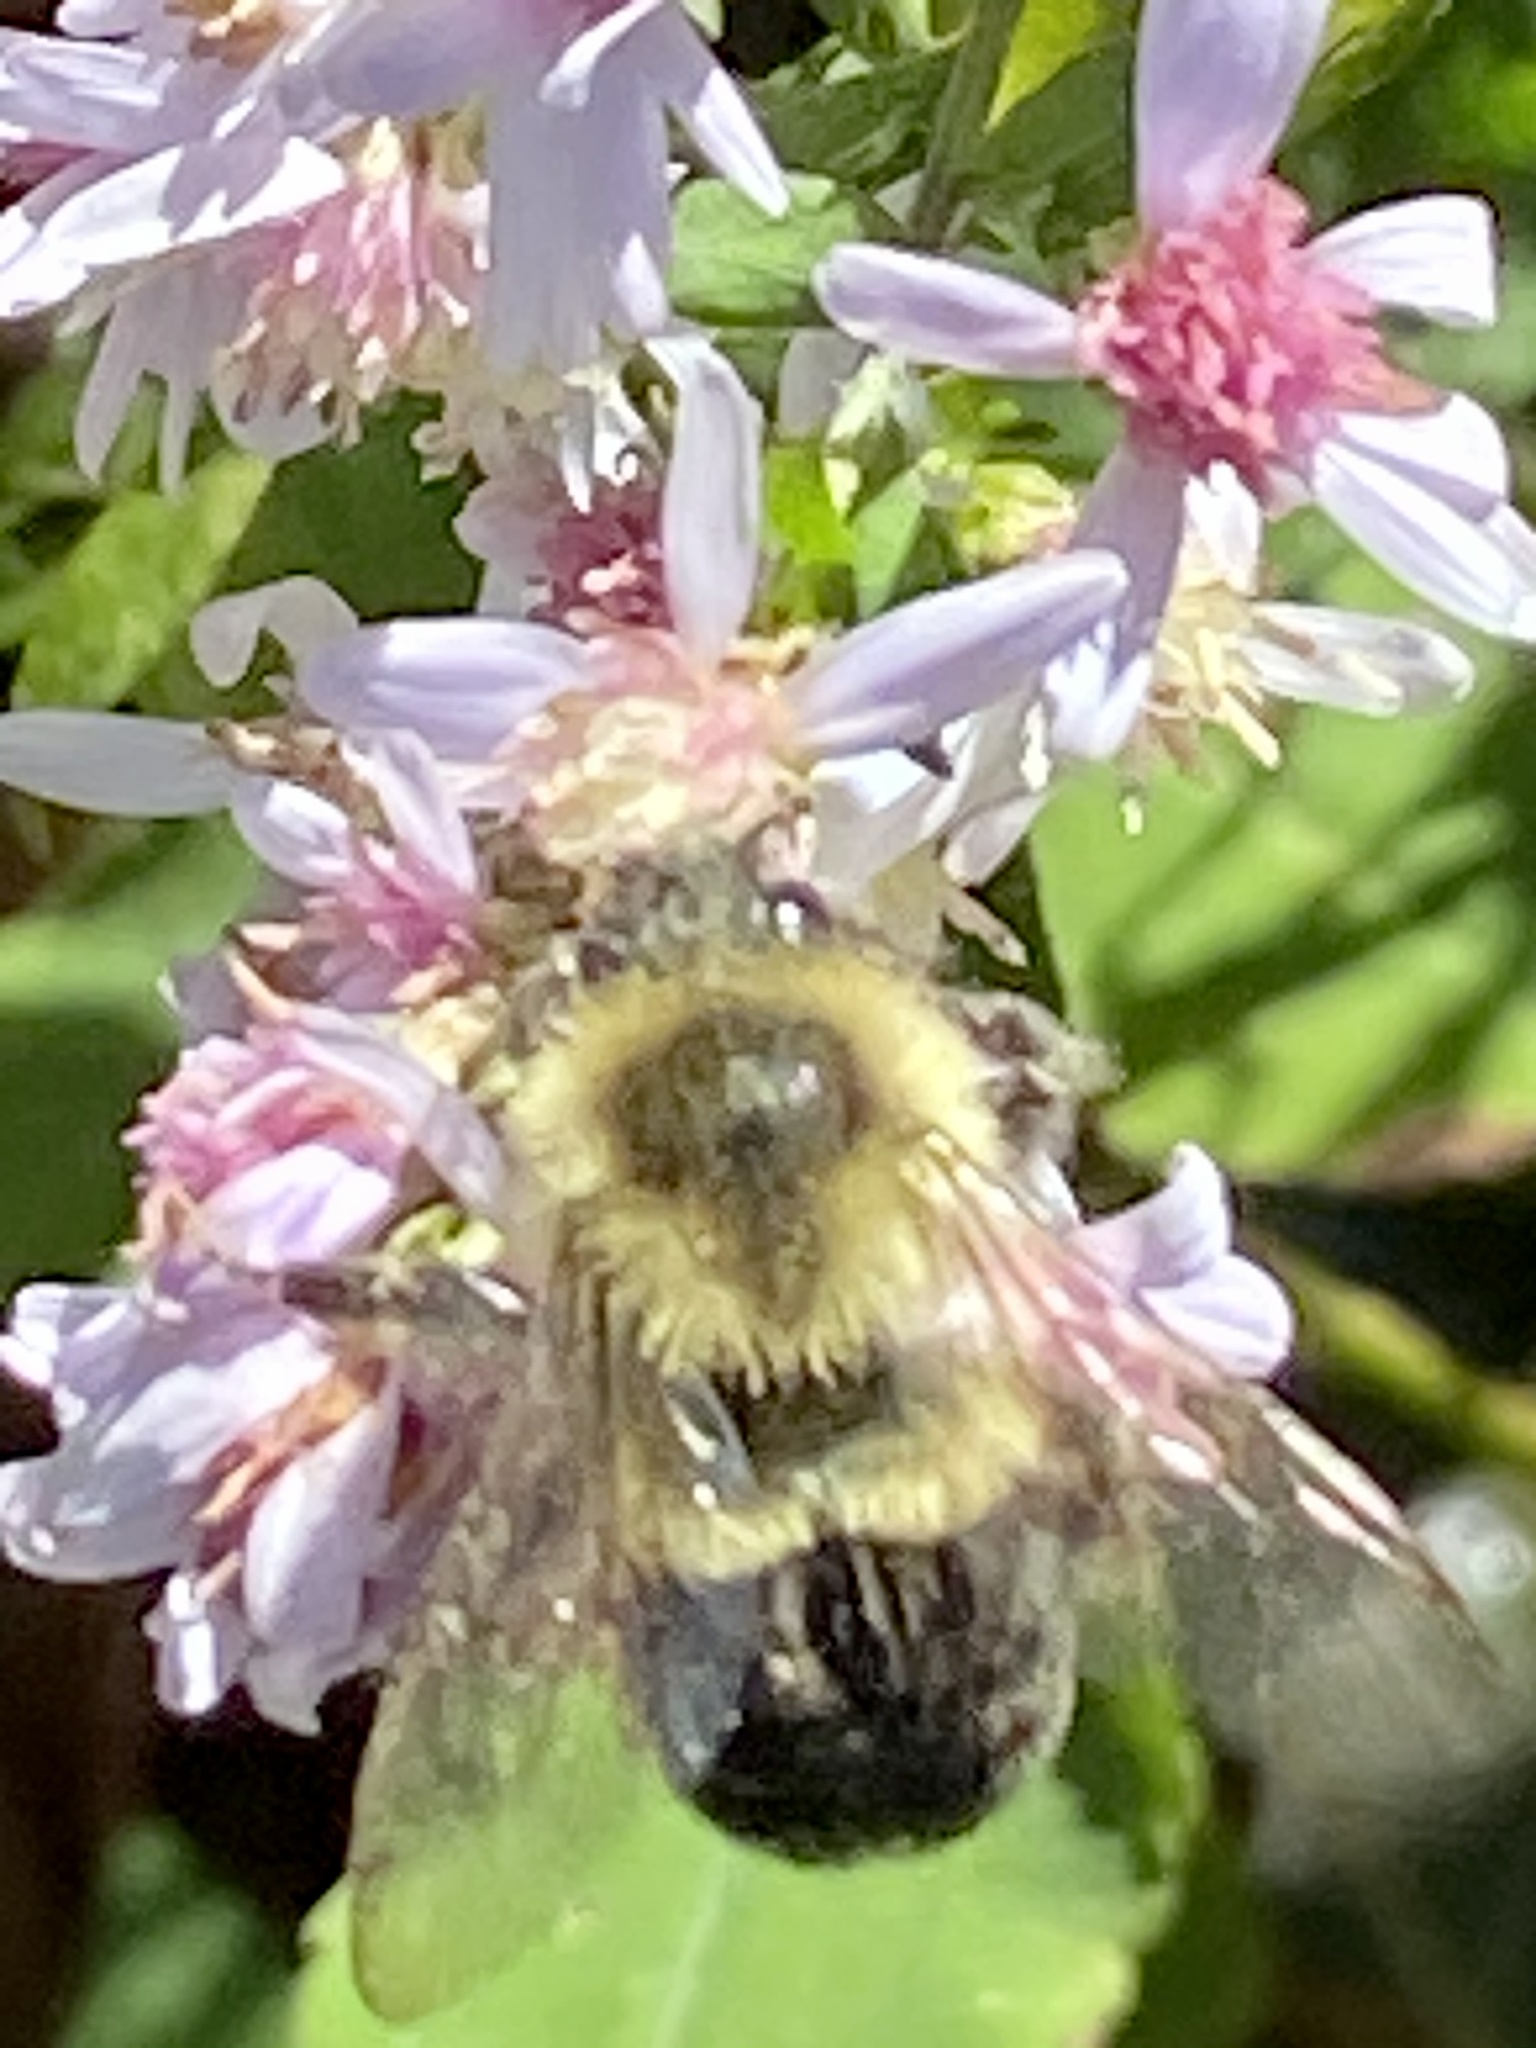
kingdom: Animalia
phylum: Arthropoda
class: Insecta
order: Hymenoptera
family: Apidae
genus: Bombus
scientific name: Bombus impatiens
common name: Common eastern bumble bee
